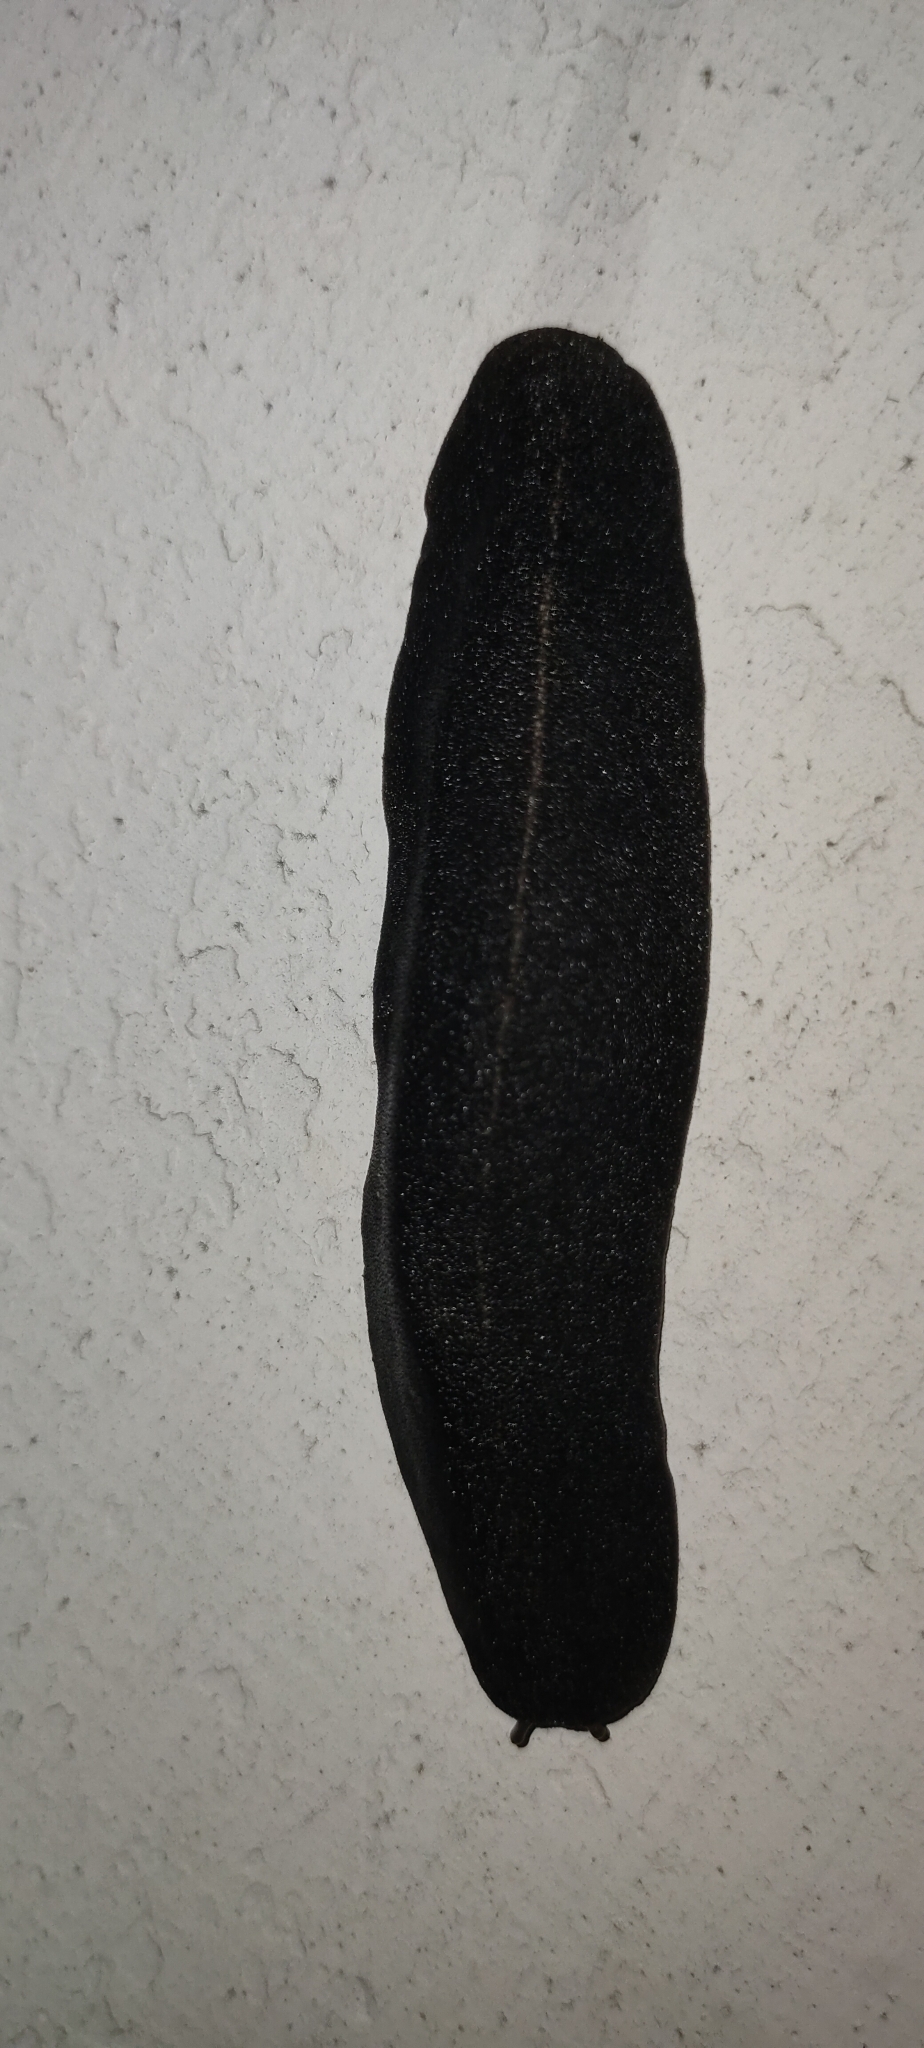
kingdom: Animalia
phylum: Mollusca
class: Gastropoda
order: Systellommatophora
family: Veronicellidae
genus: Laevicaulis
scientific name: Laevicaulis alte
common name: Tropical leatherleaf
